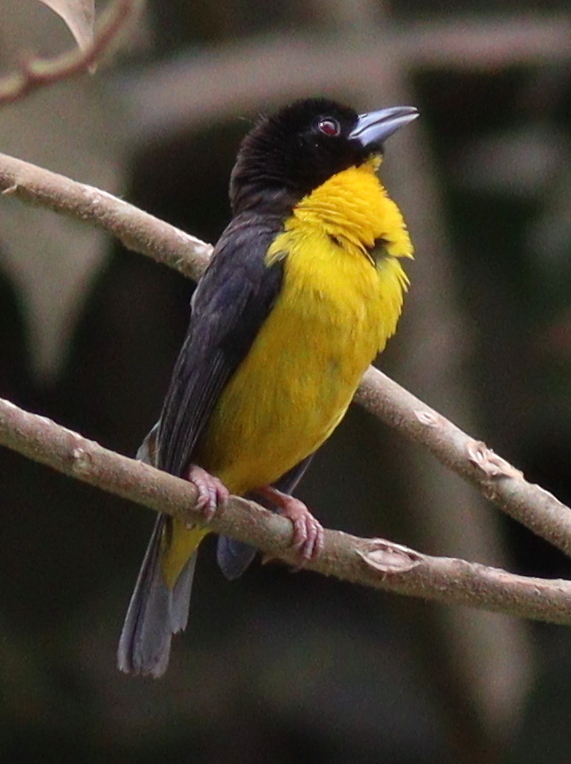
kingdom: Animalia
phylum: Chordata
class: Aves
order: Passeriformes
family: Ploceidae
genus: Ploceus
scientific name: Ploceus bicolor
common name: Dark-backed weaver
